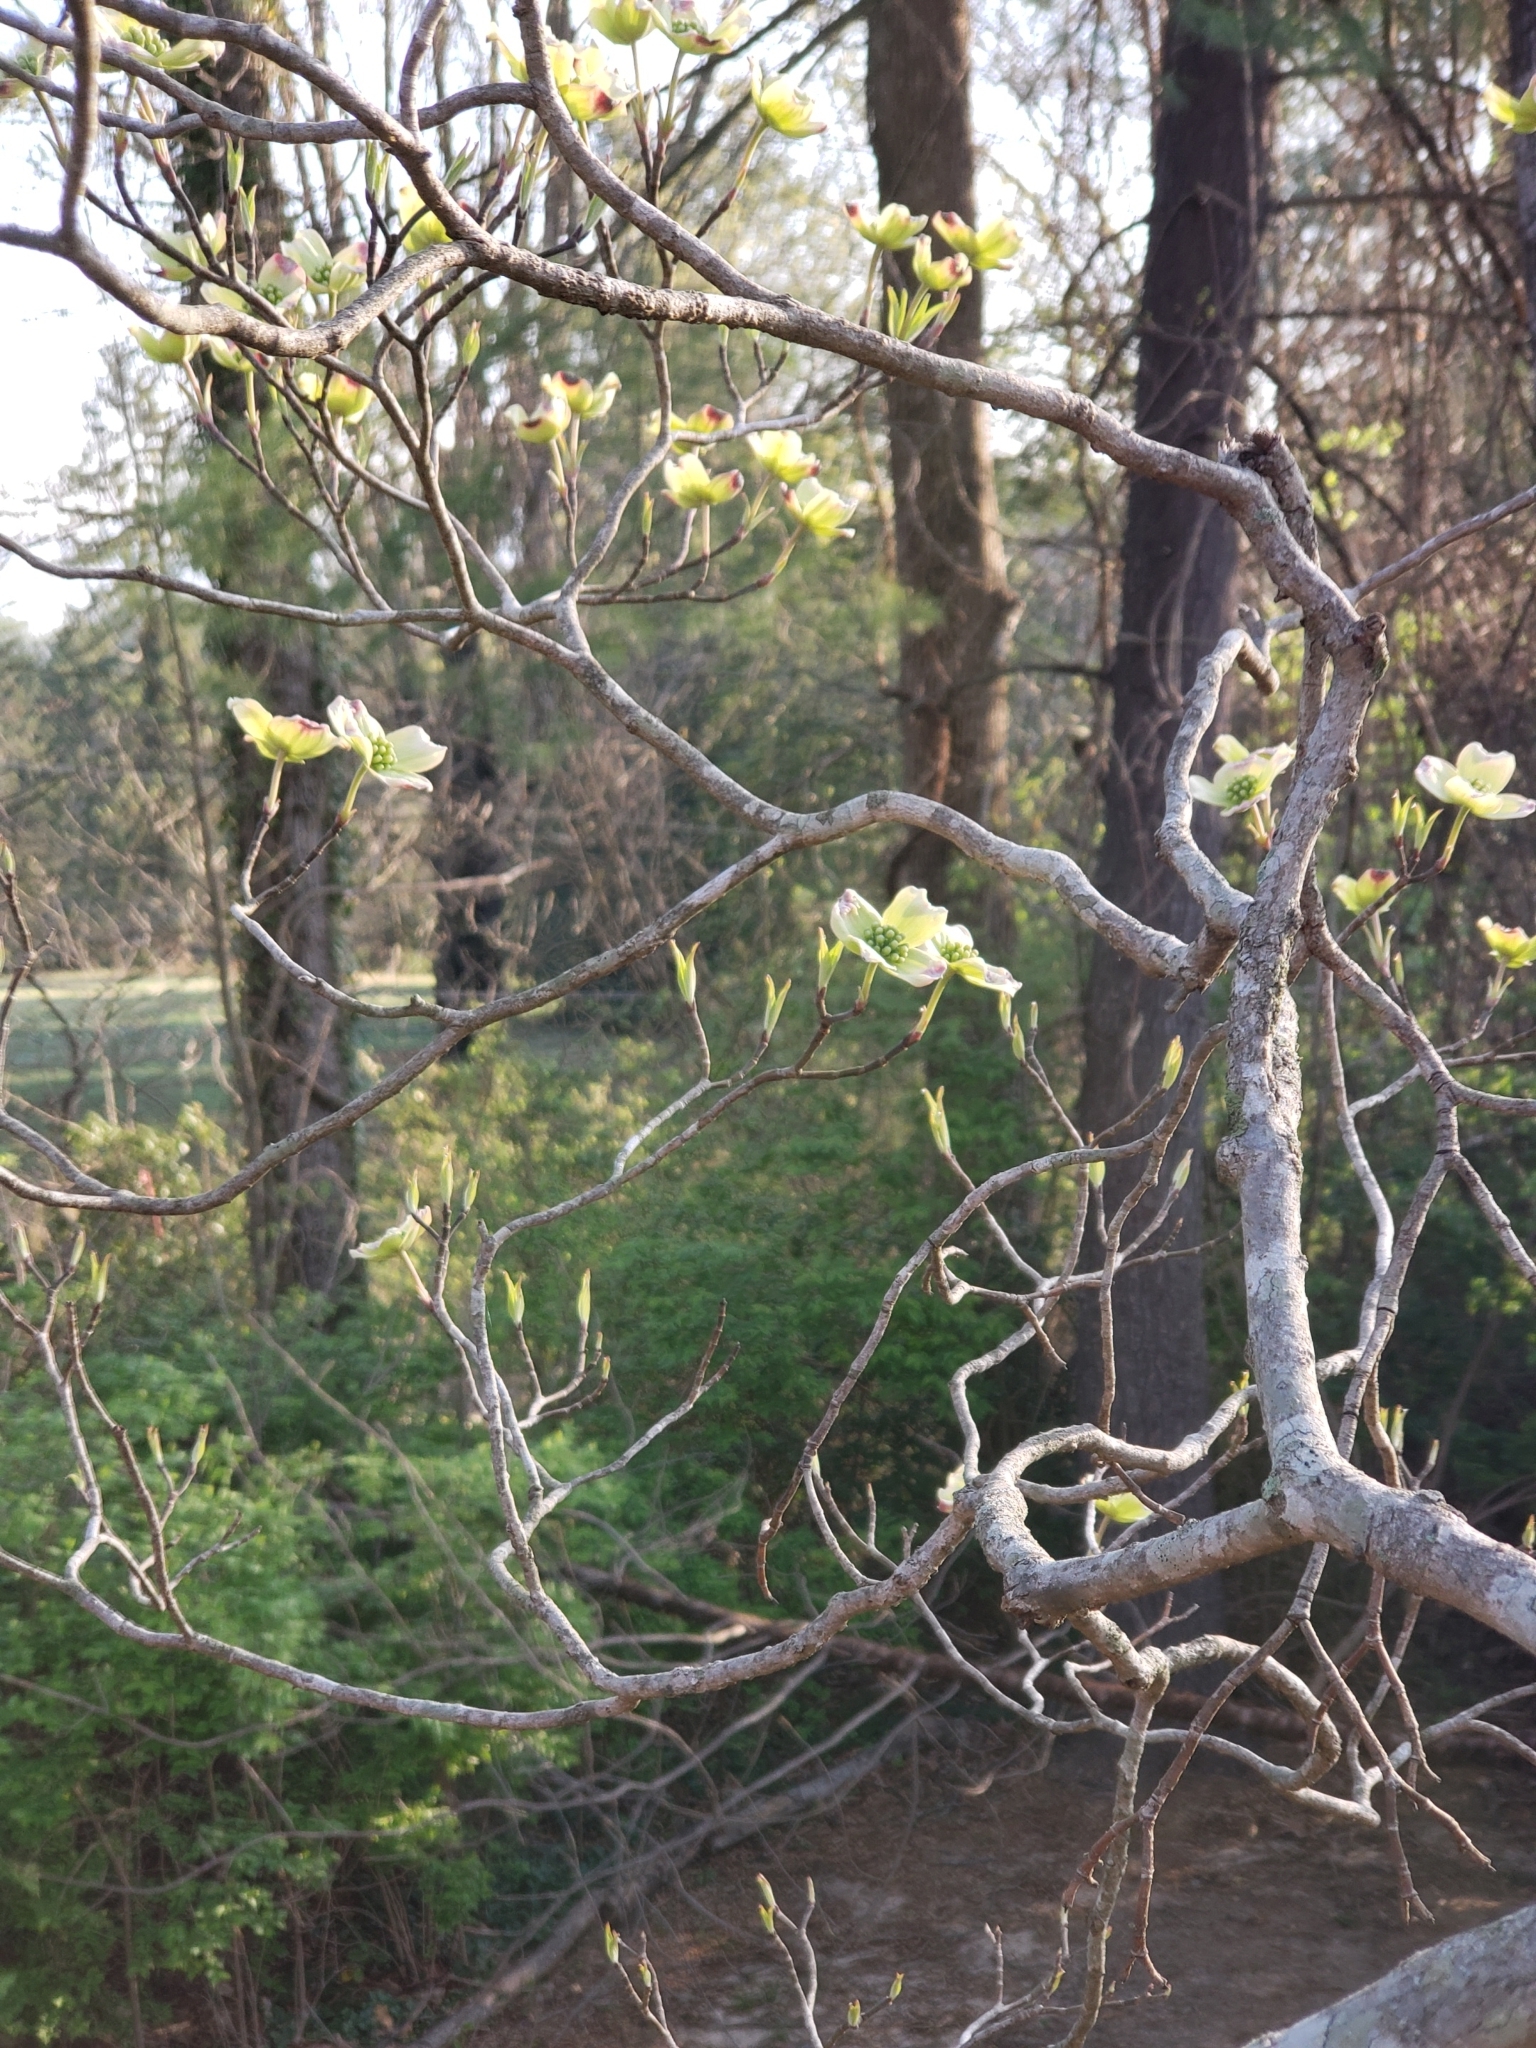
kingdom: Plantae
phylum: Tracheophyta
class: Magnoliopsida
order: Cornales
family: Cornaceae
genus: Cornus
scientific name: Cornus florida
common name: Flowering dogwood
